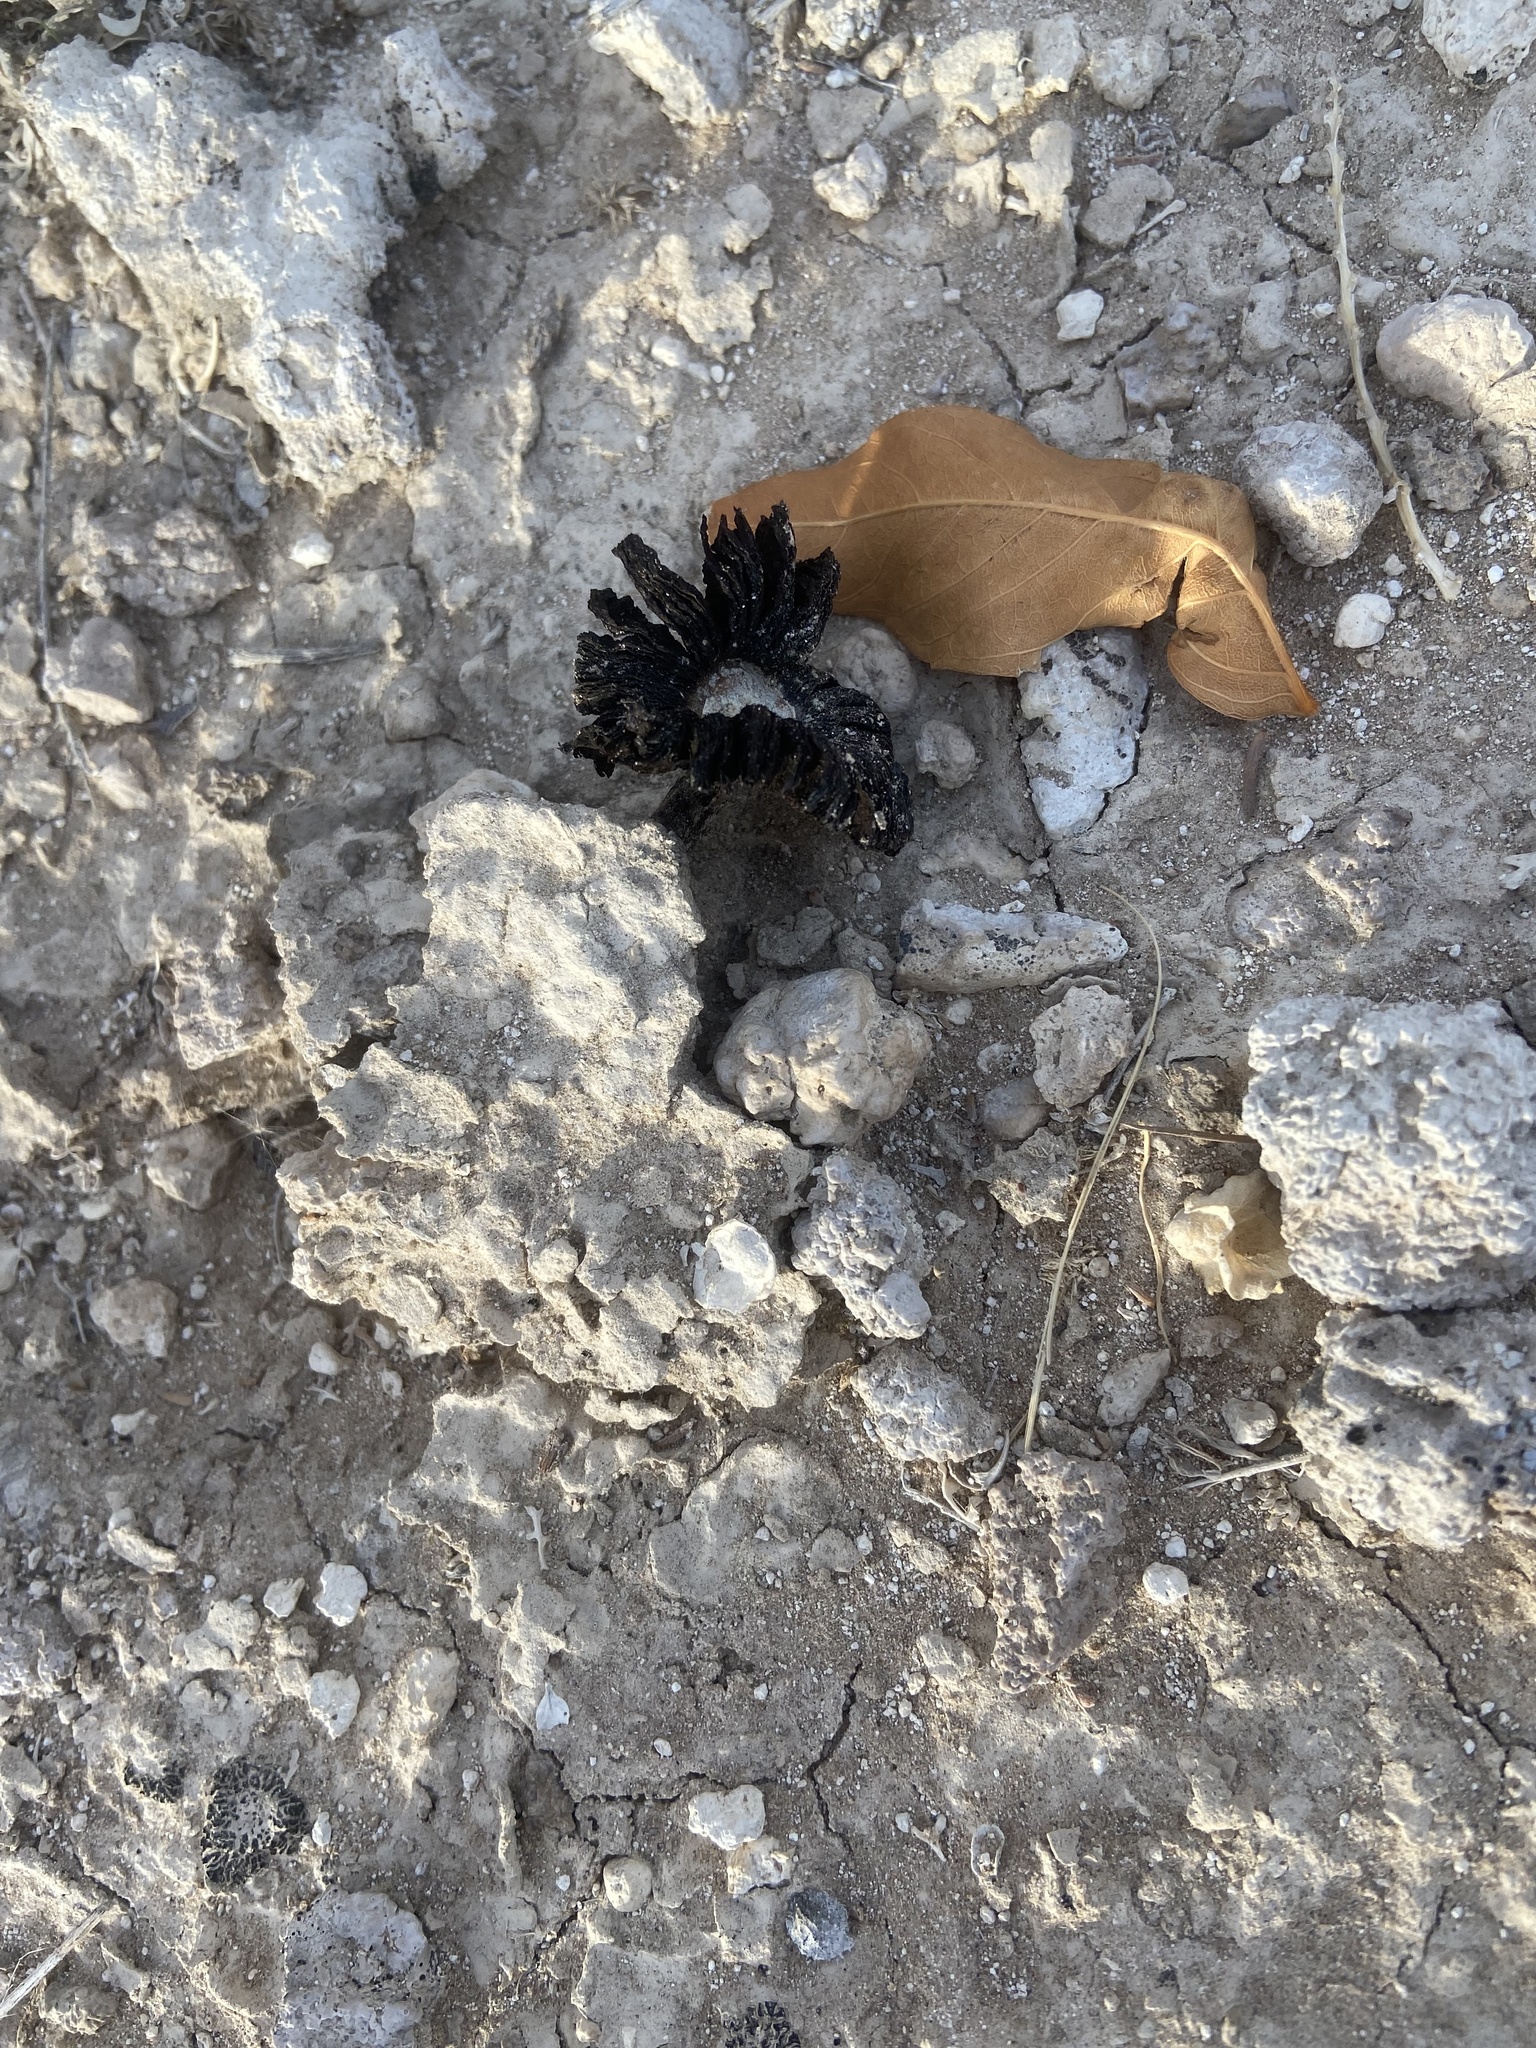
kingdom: Fungi
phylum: Basidiomycota
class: Agaricomycetes
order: Agaricales
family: Agaricaceae
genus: Montagnea
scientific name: Montagnea arenaria
